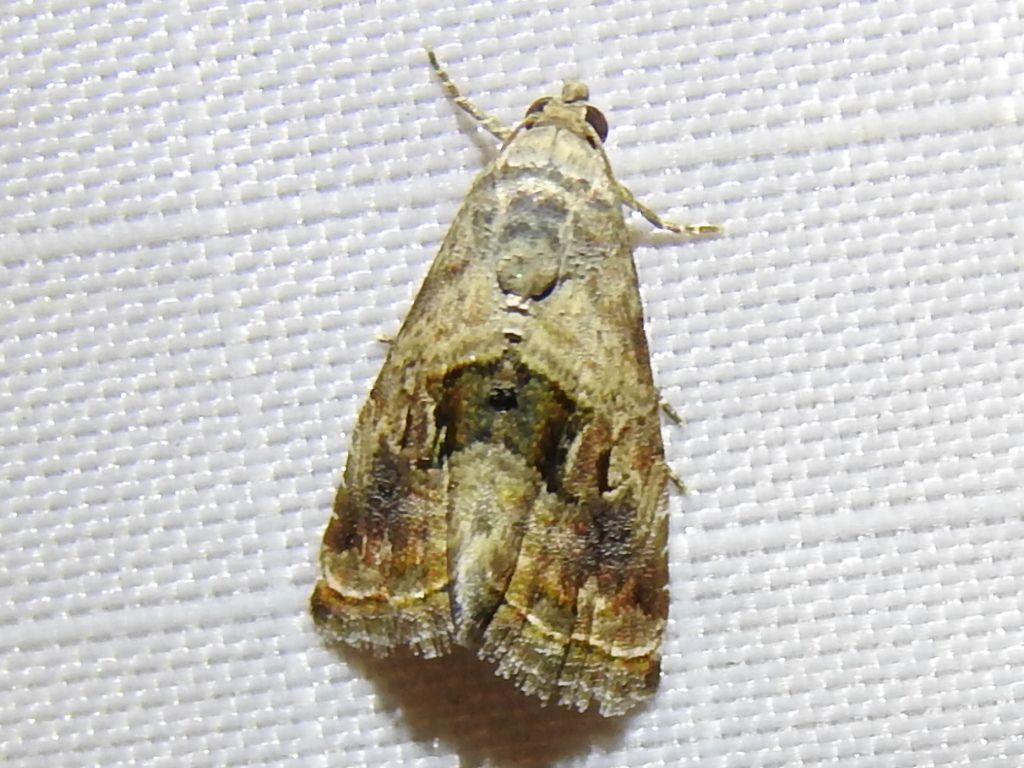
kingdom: Animalia
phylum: Arthropoda
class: Insecta
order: Lepidoptera
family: Noctuidae
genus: Tripudia
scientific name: Tripudia quadrifera
